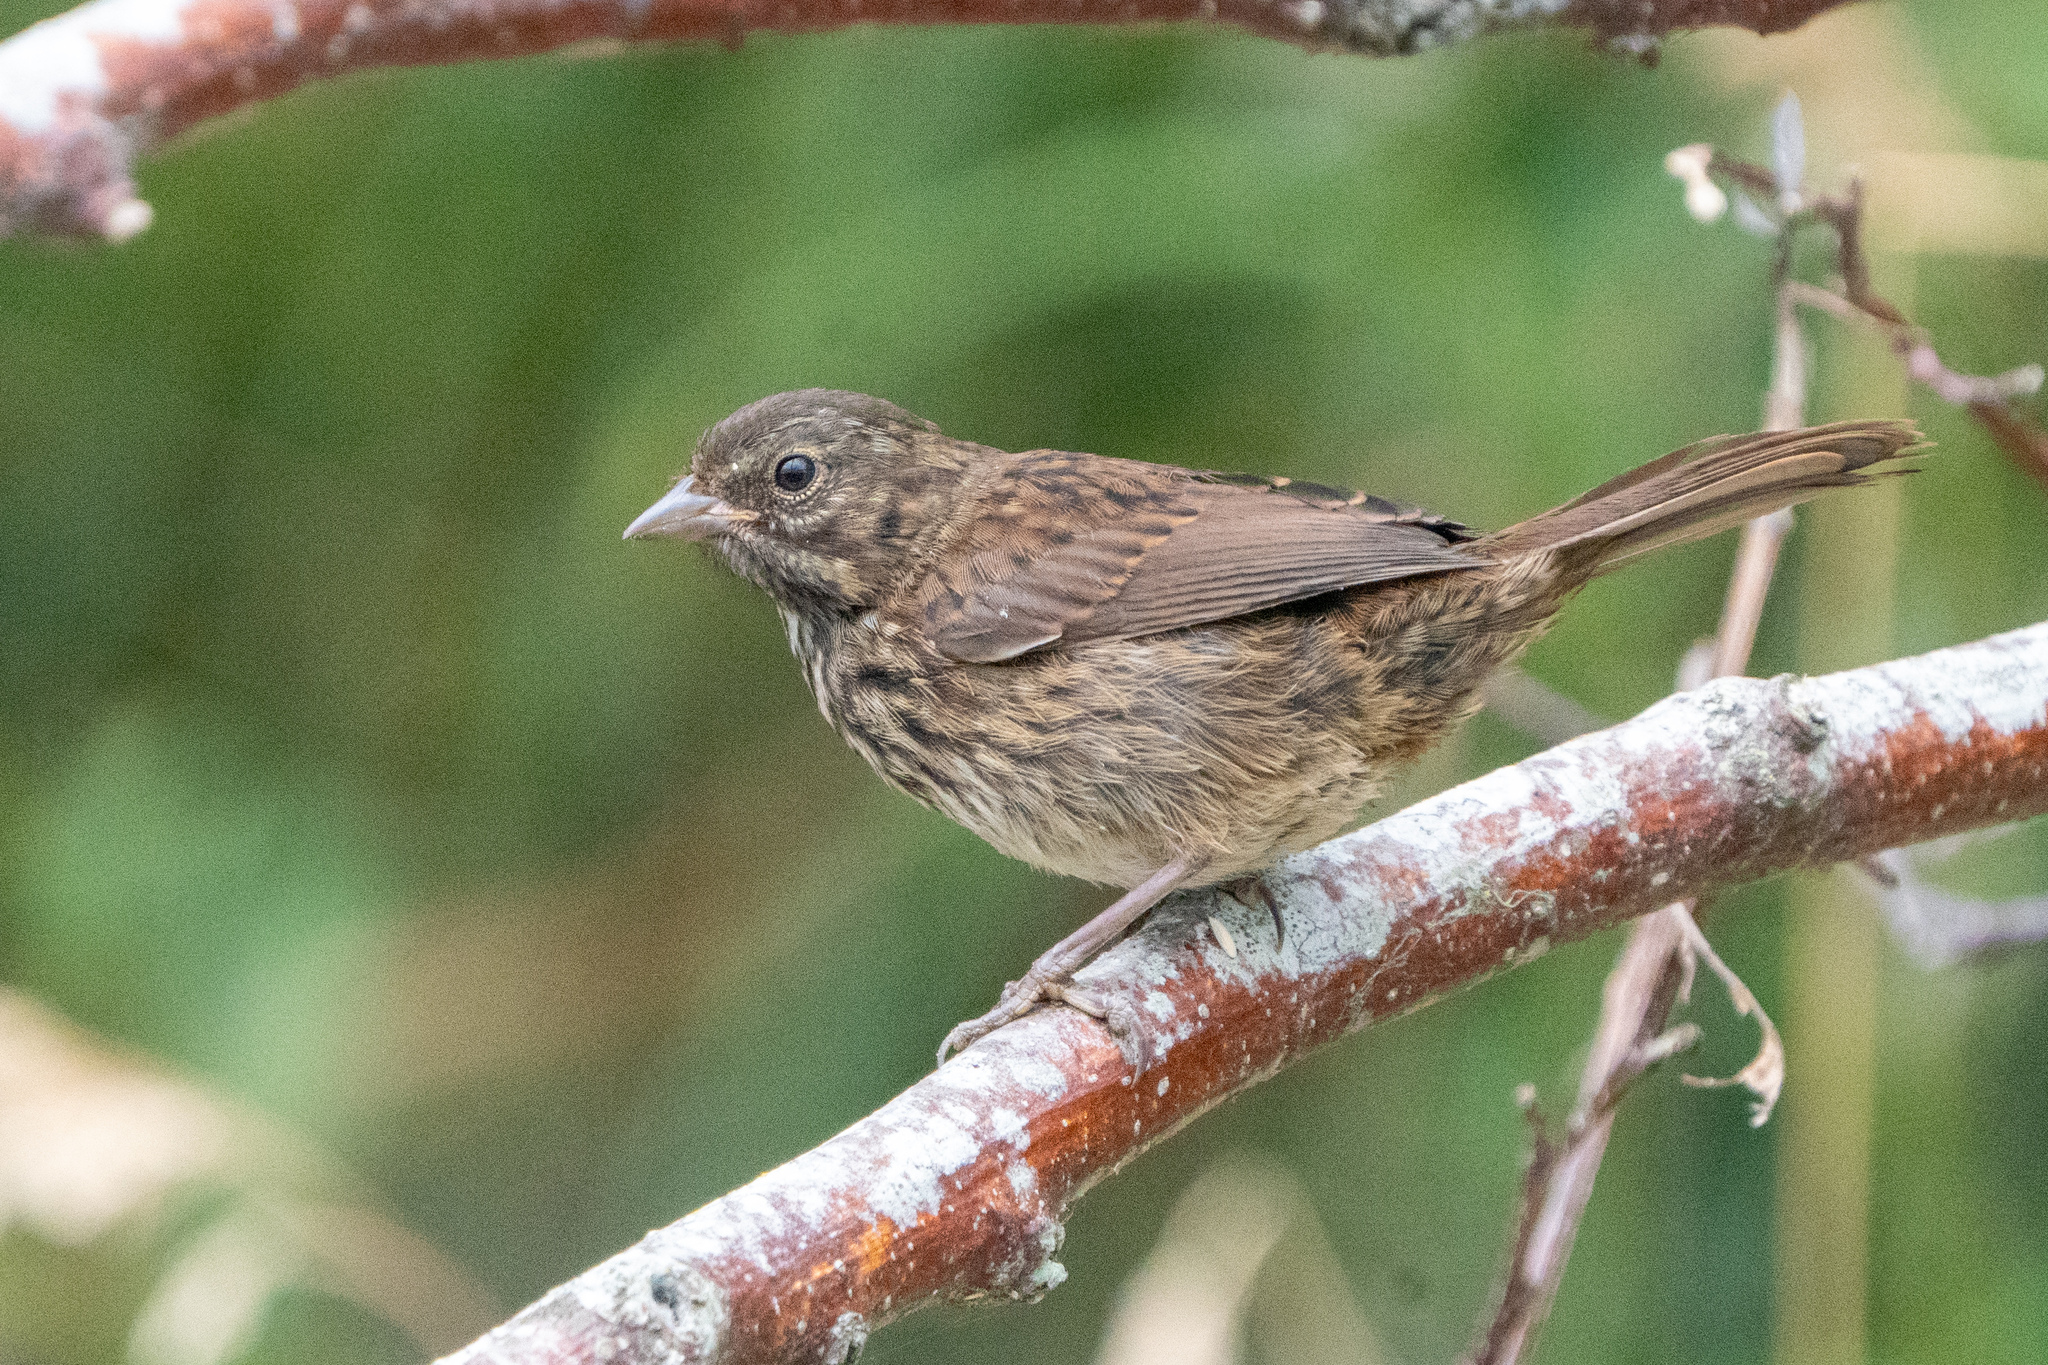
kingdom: Animalia
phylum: Chordata
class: Aves
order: Passeriformes
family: Passerellidae
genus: Melospiza
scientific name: Melospiza melodia
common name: Song sparrow
